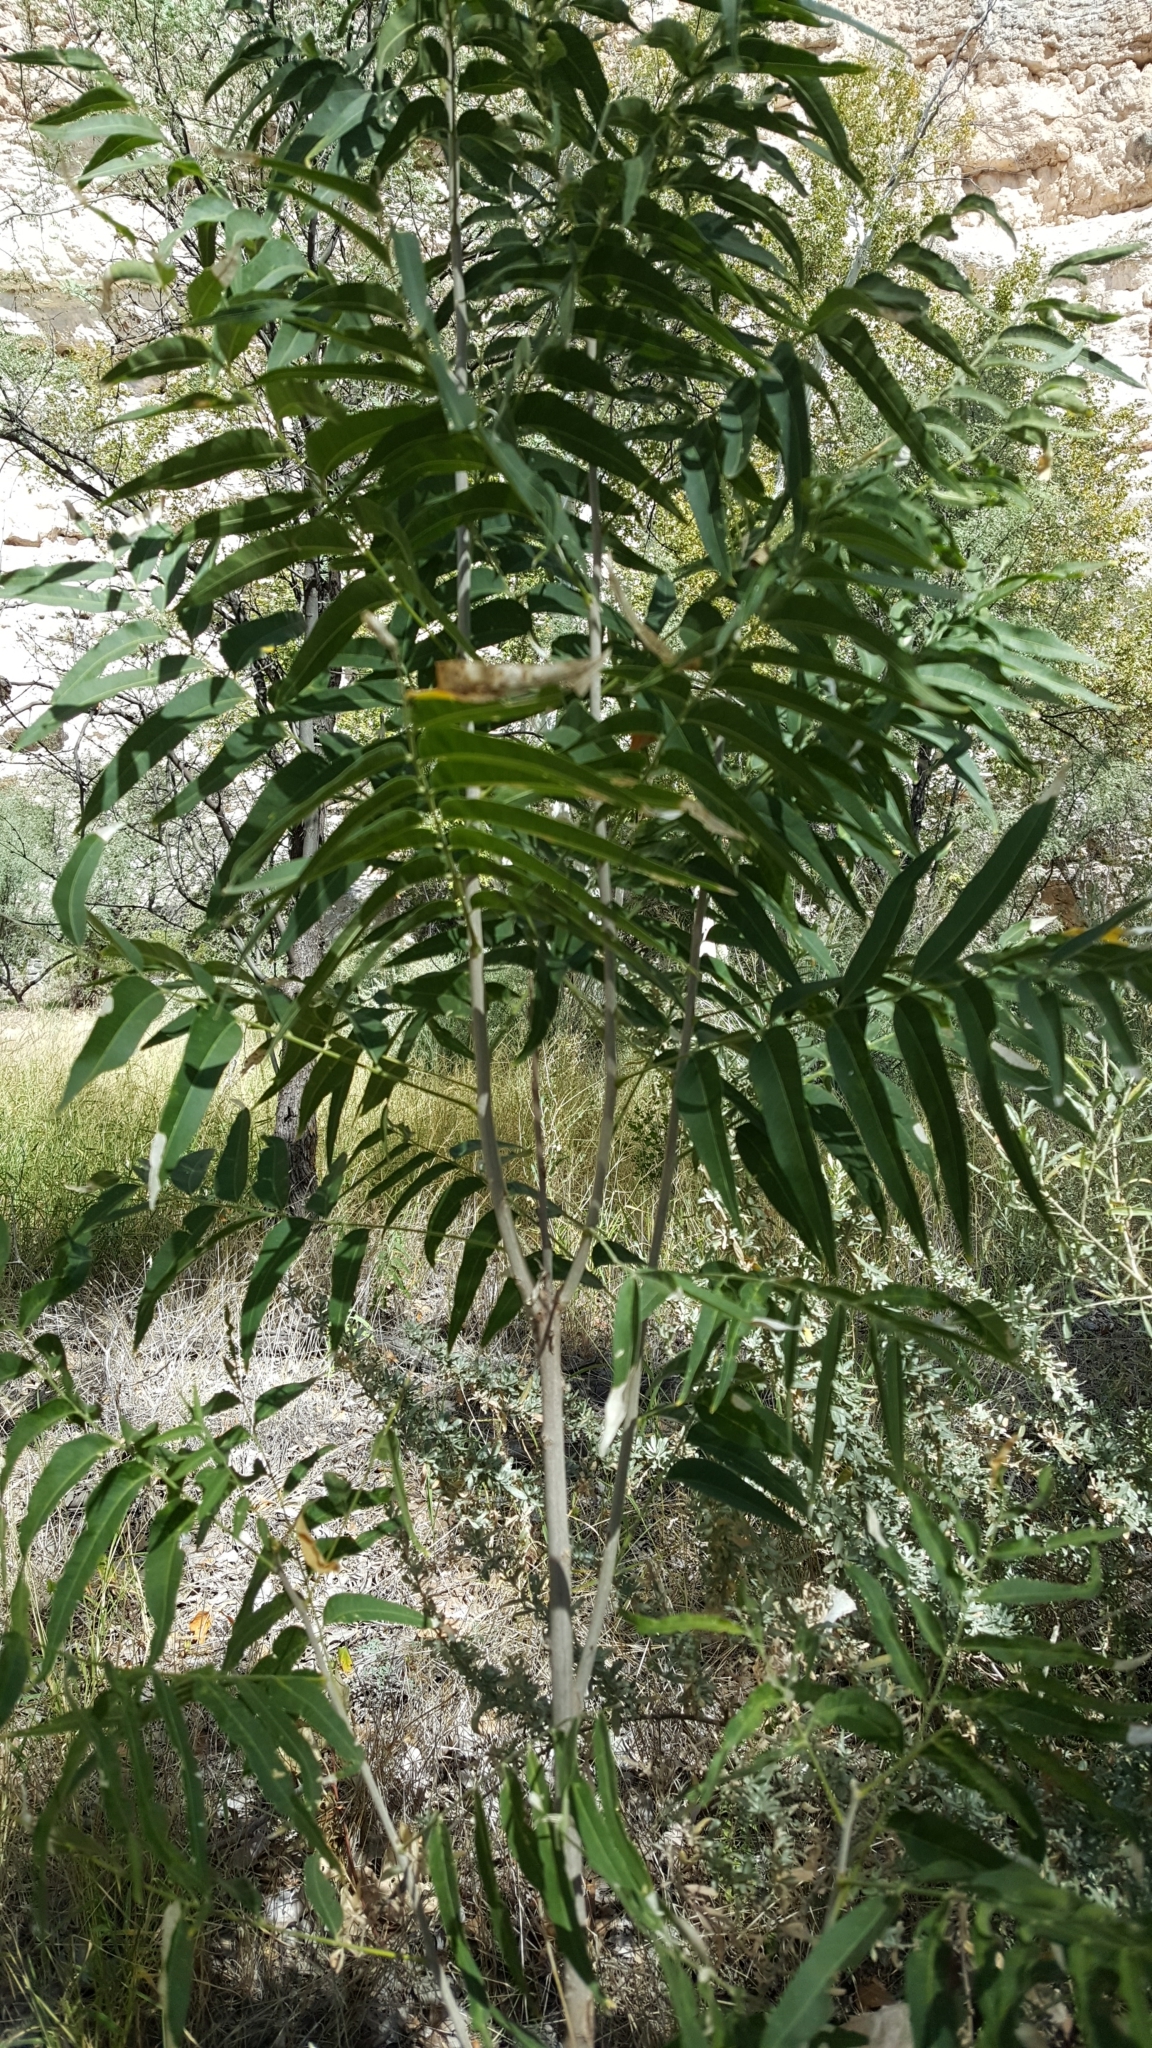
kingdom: Plantae
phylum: Tracheophyta
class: Magnoliopsida
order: Sapindales
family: Sapindaceae
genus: Sapindus
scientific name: Sapindus drummondii
